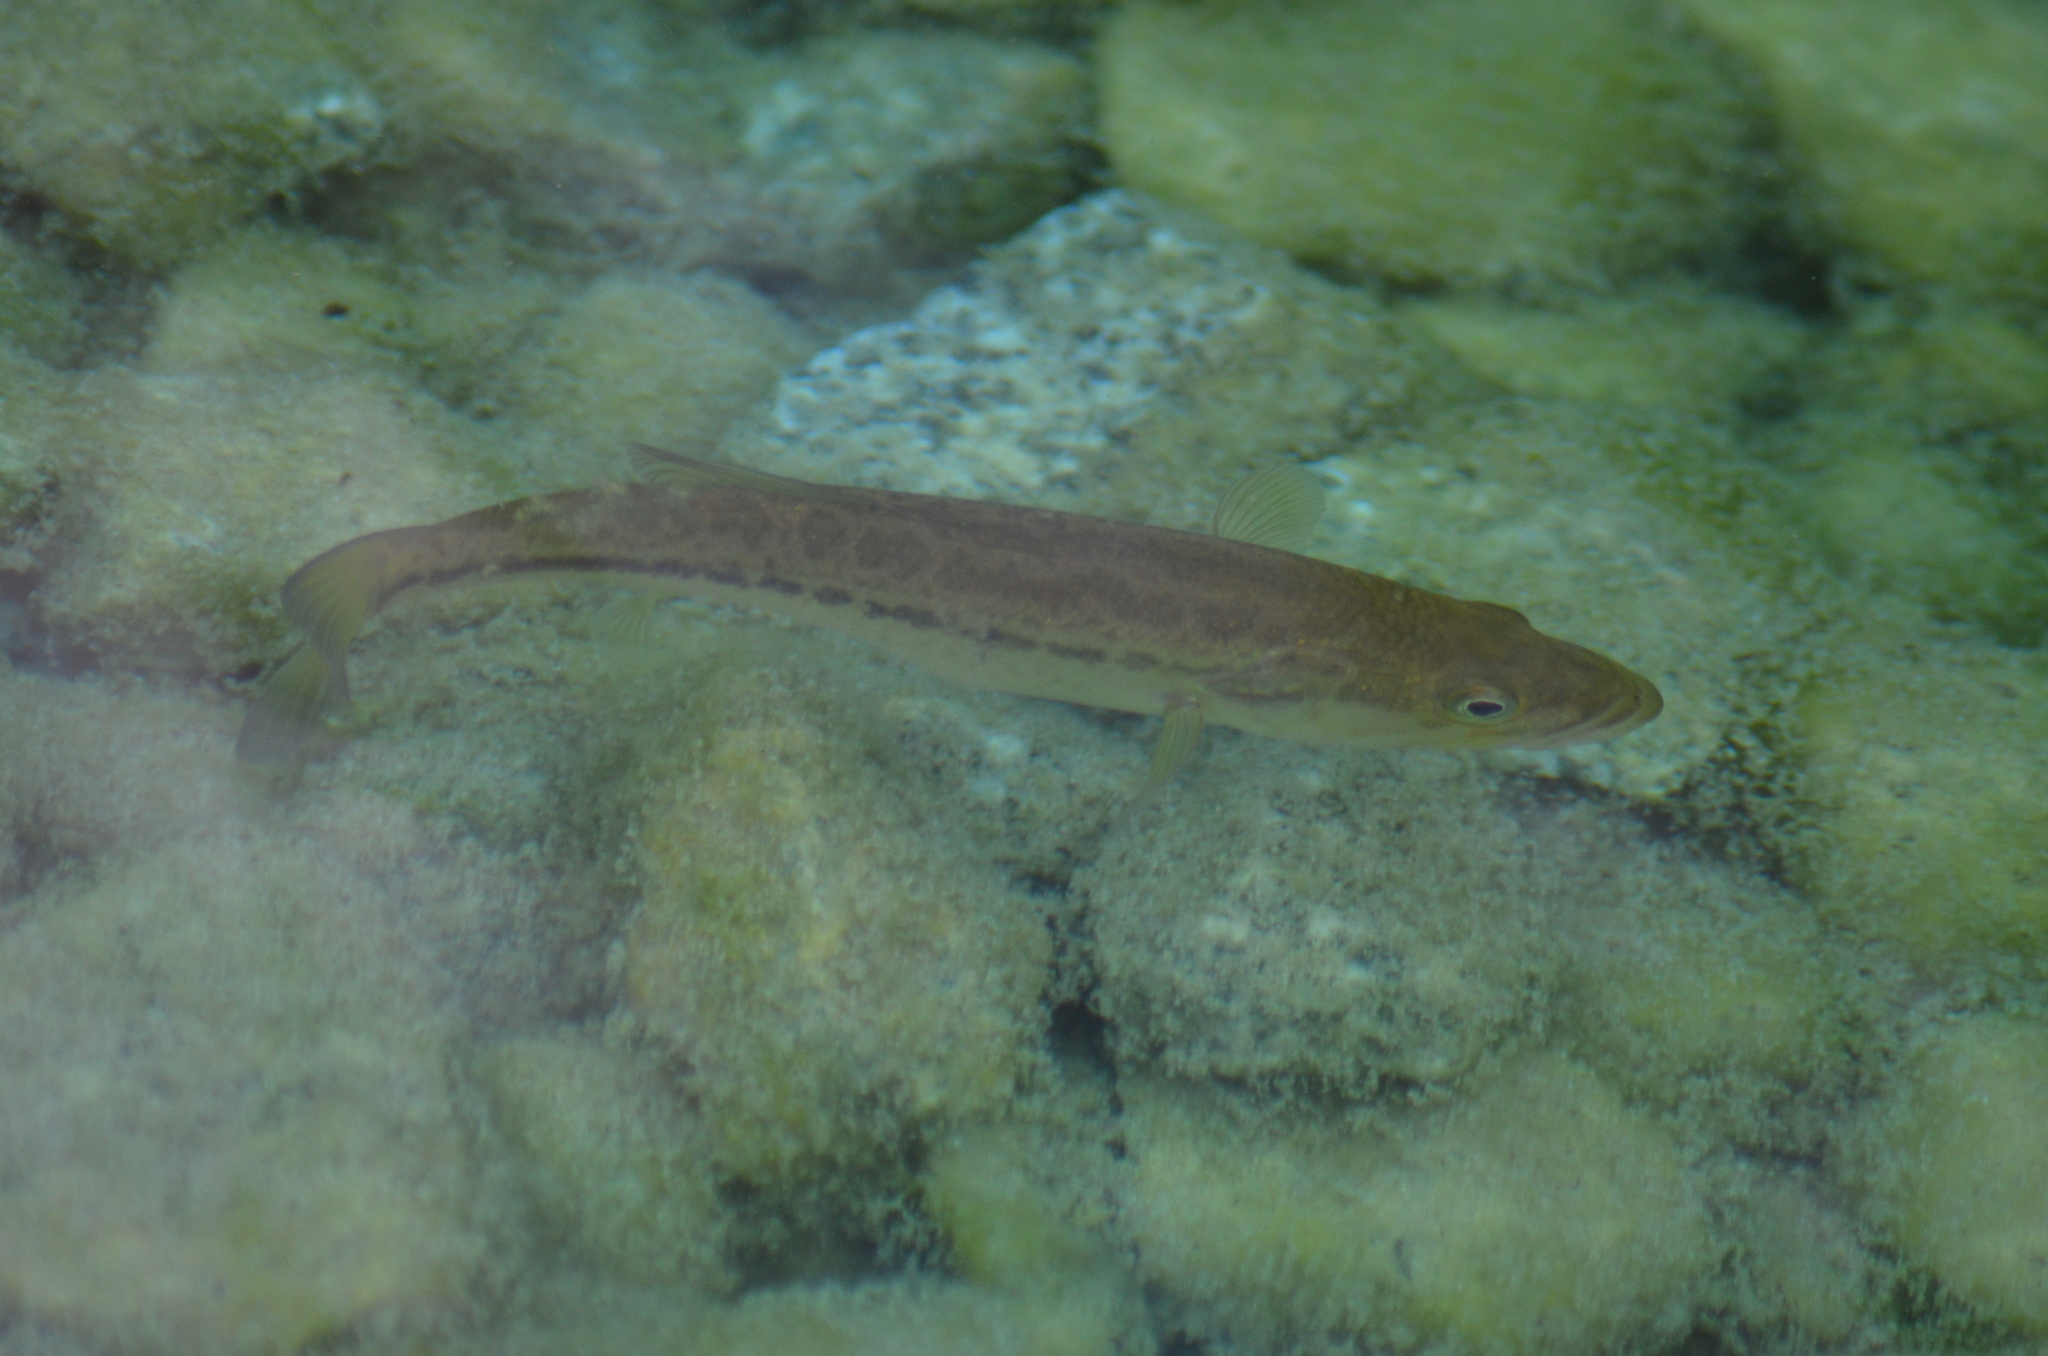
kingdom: Animalia
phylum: Chordata
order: Perciformes
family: Centrarchidae
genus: Micropterus
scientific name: Micropterus
